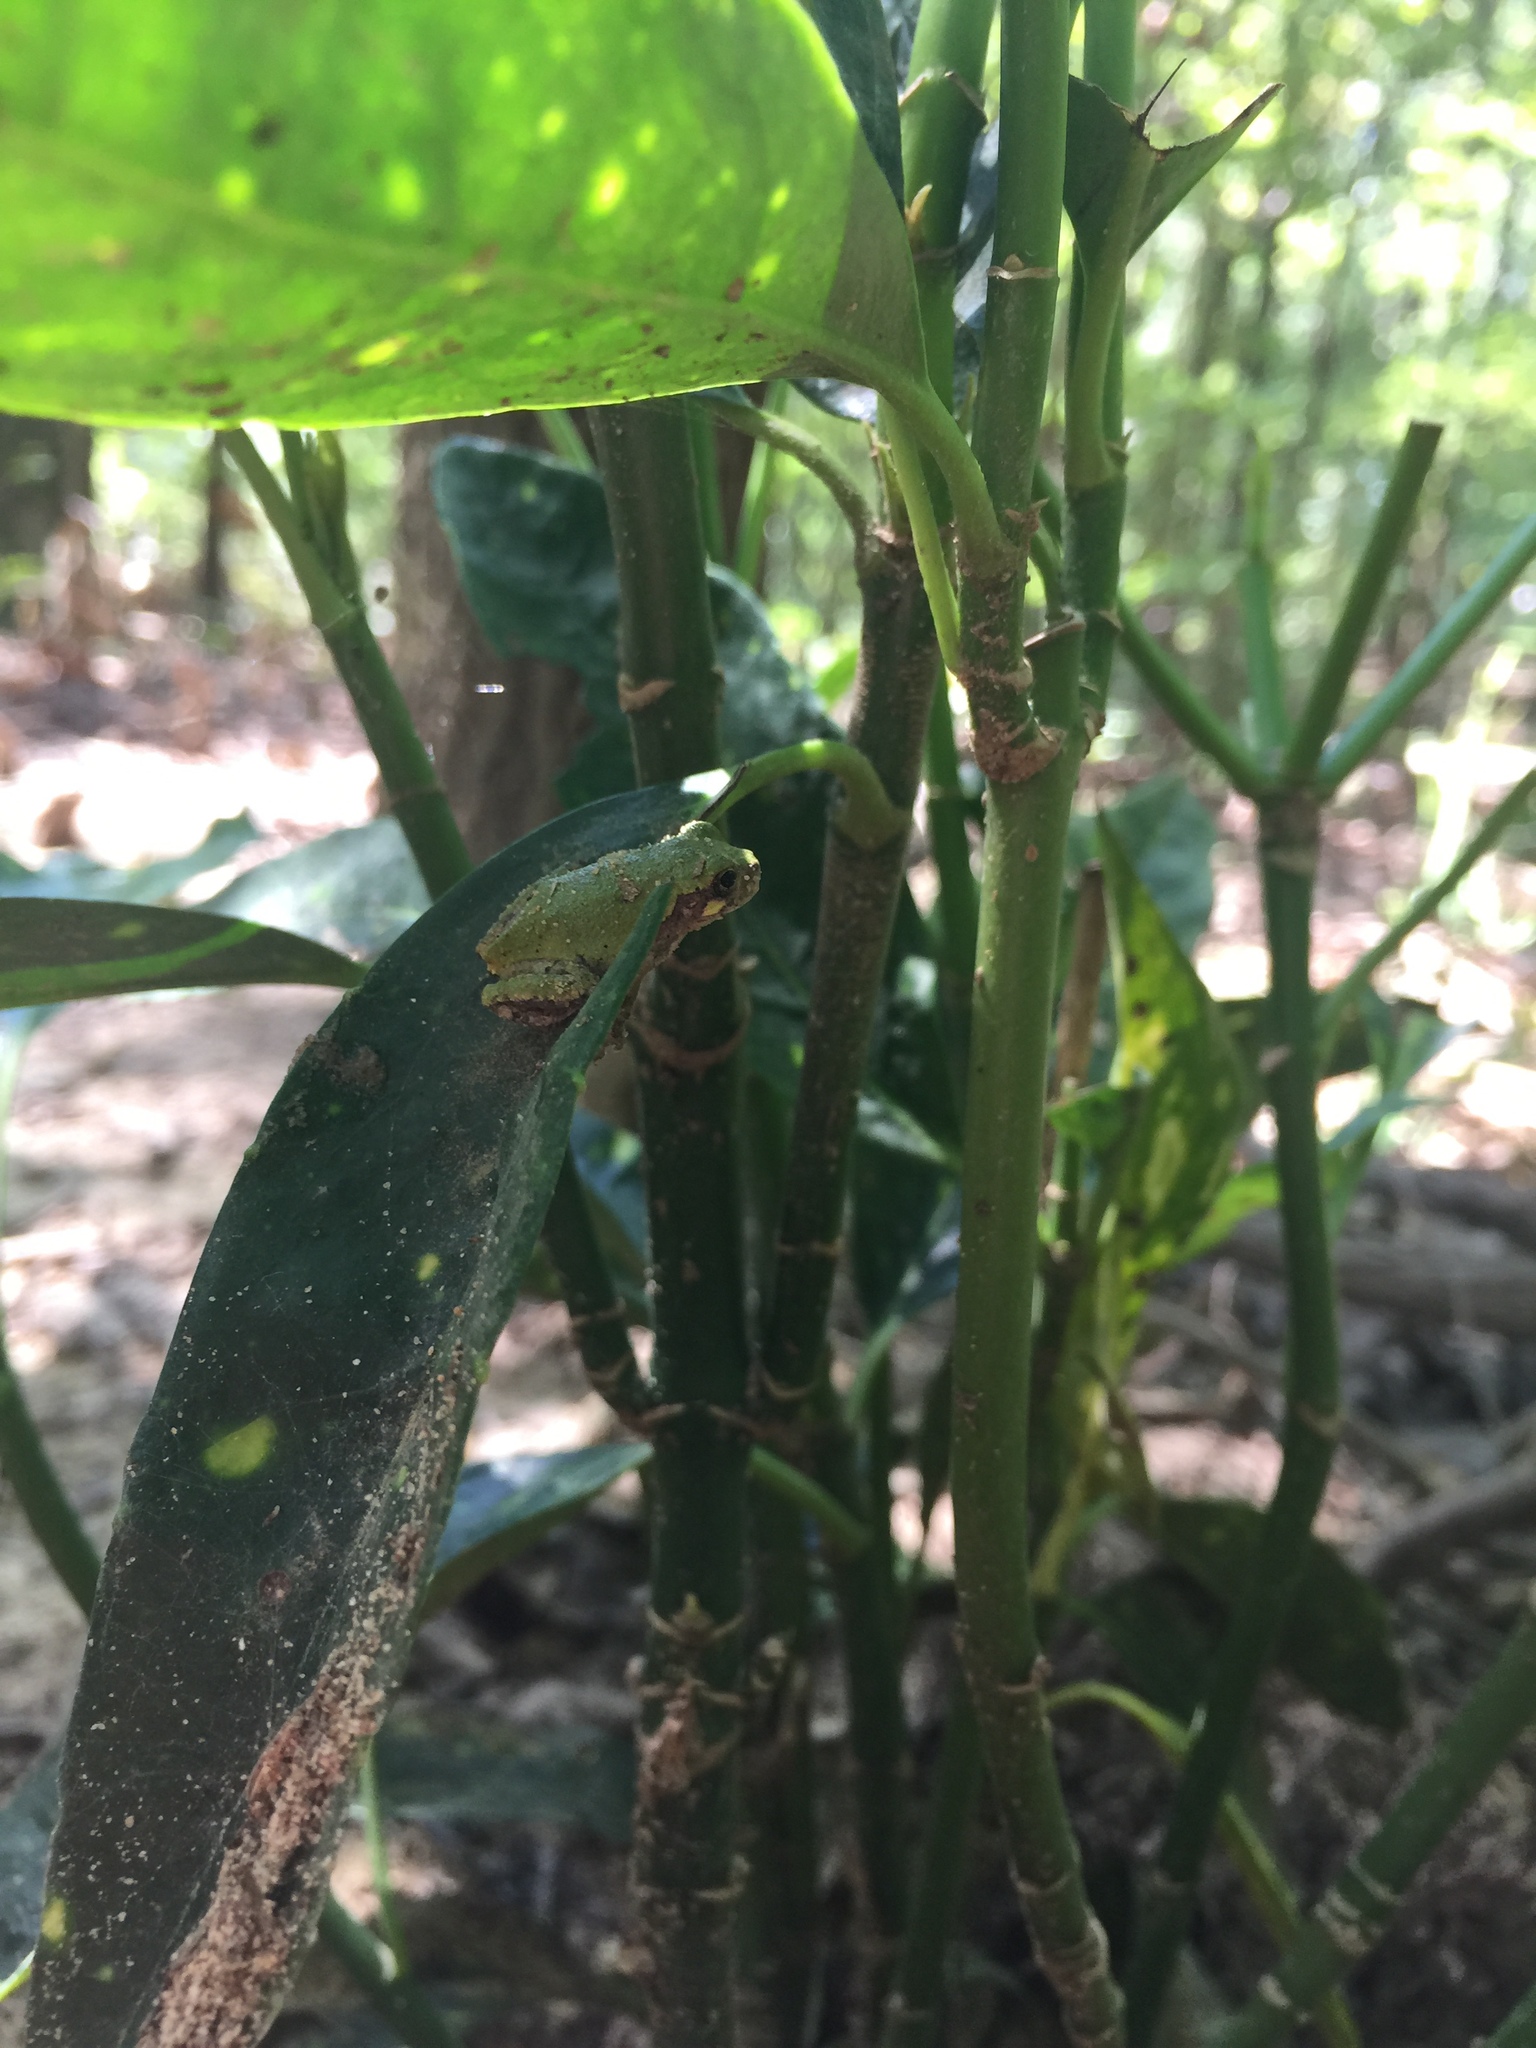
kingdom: Animalia
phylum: Chordata
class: Amphibia
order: Anura
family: Hylidae
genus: Hyla
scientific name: Hyla
